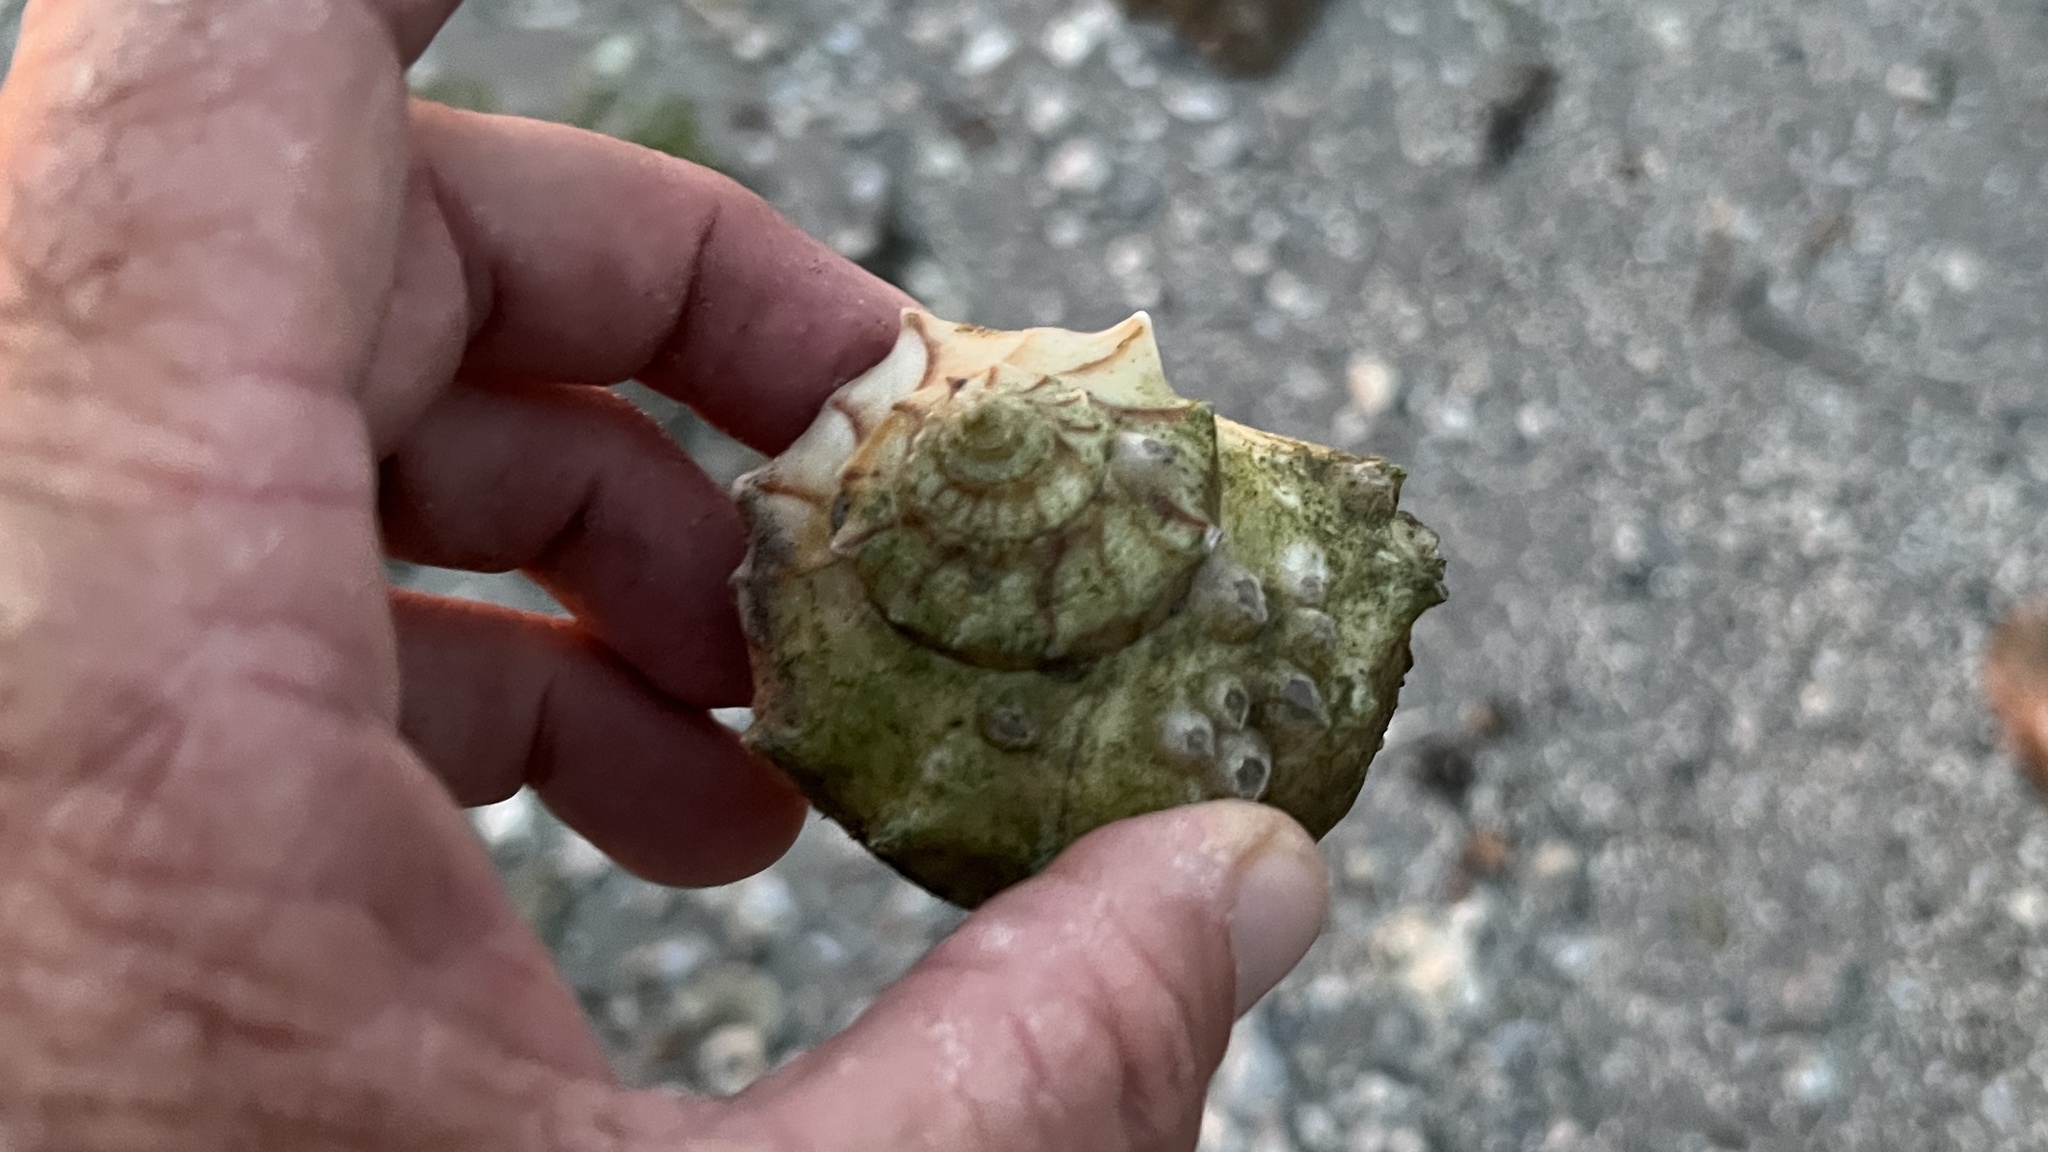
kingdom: Animalia
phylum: Mollusca
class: Gastropoda
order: Neogastropoda
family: Busyconidae
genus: Sinistrofulgur
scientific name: Sinistrofulgur pulleyi
